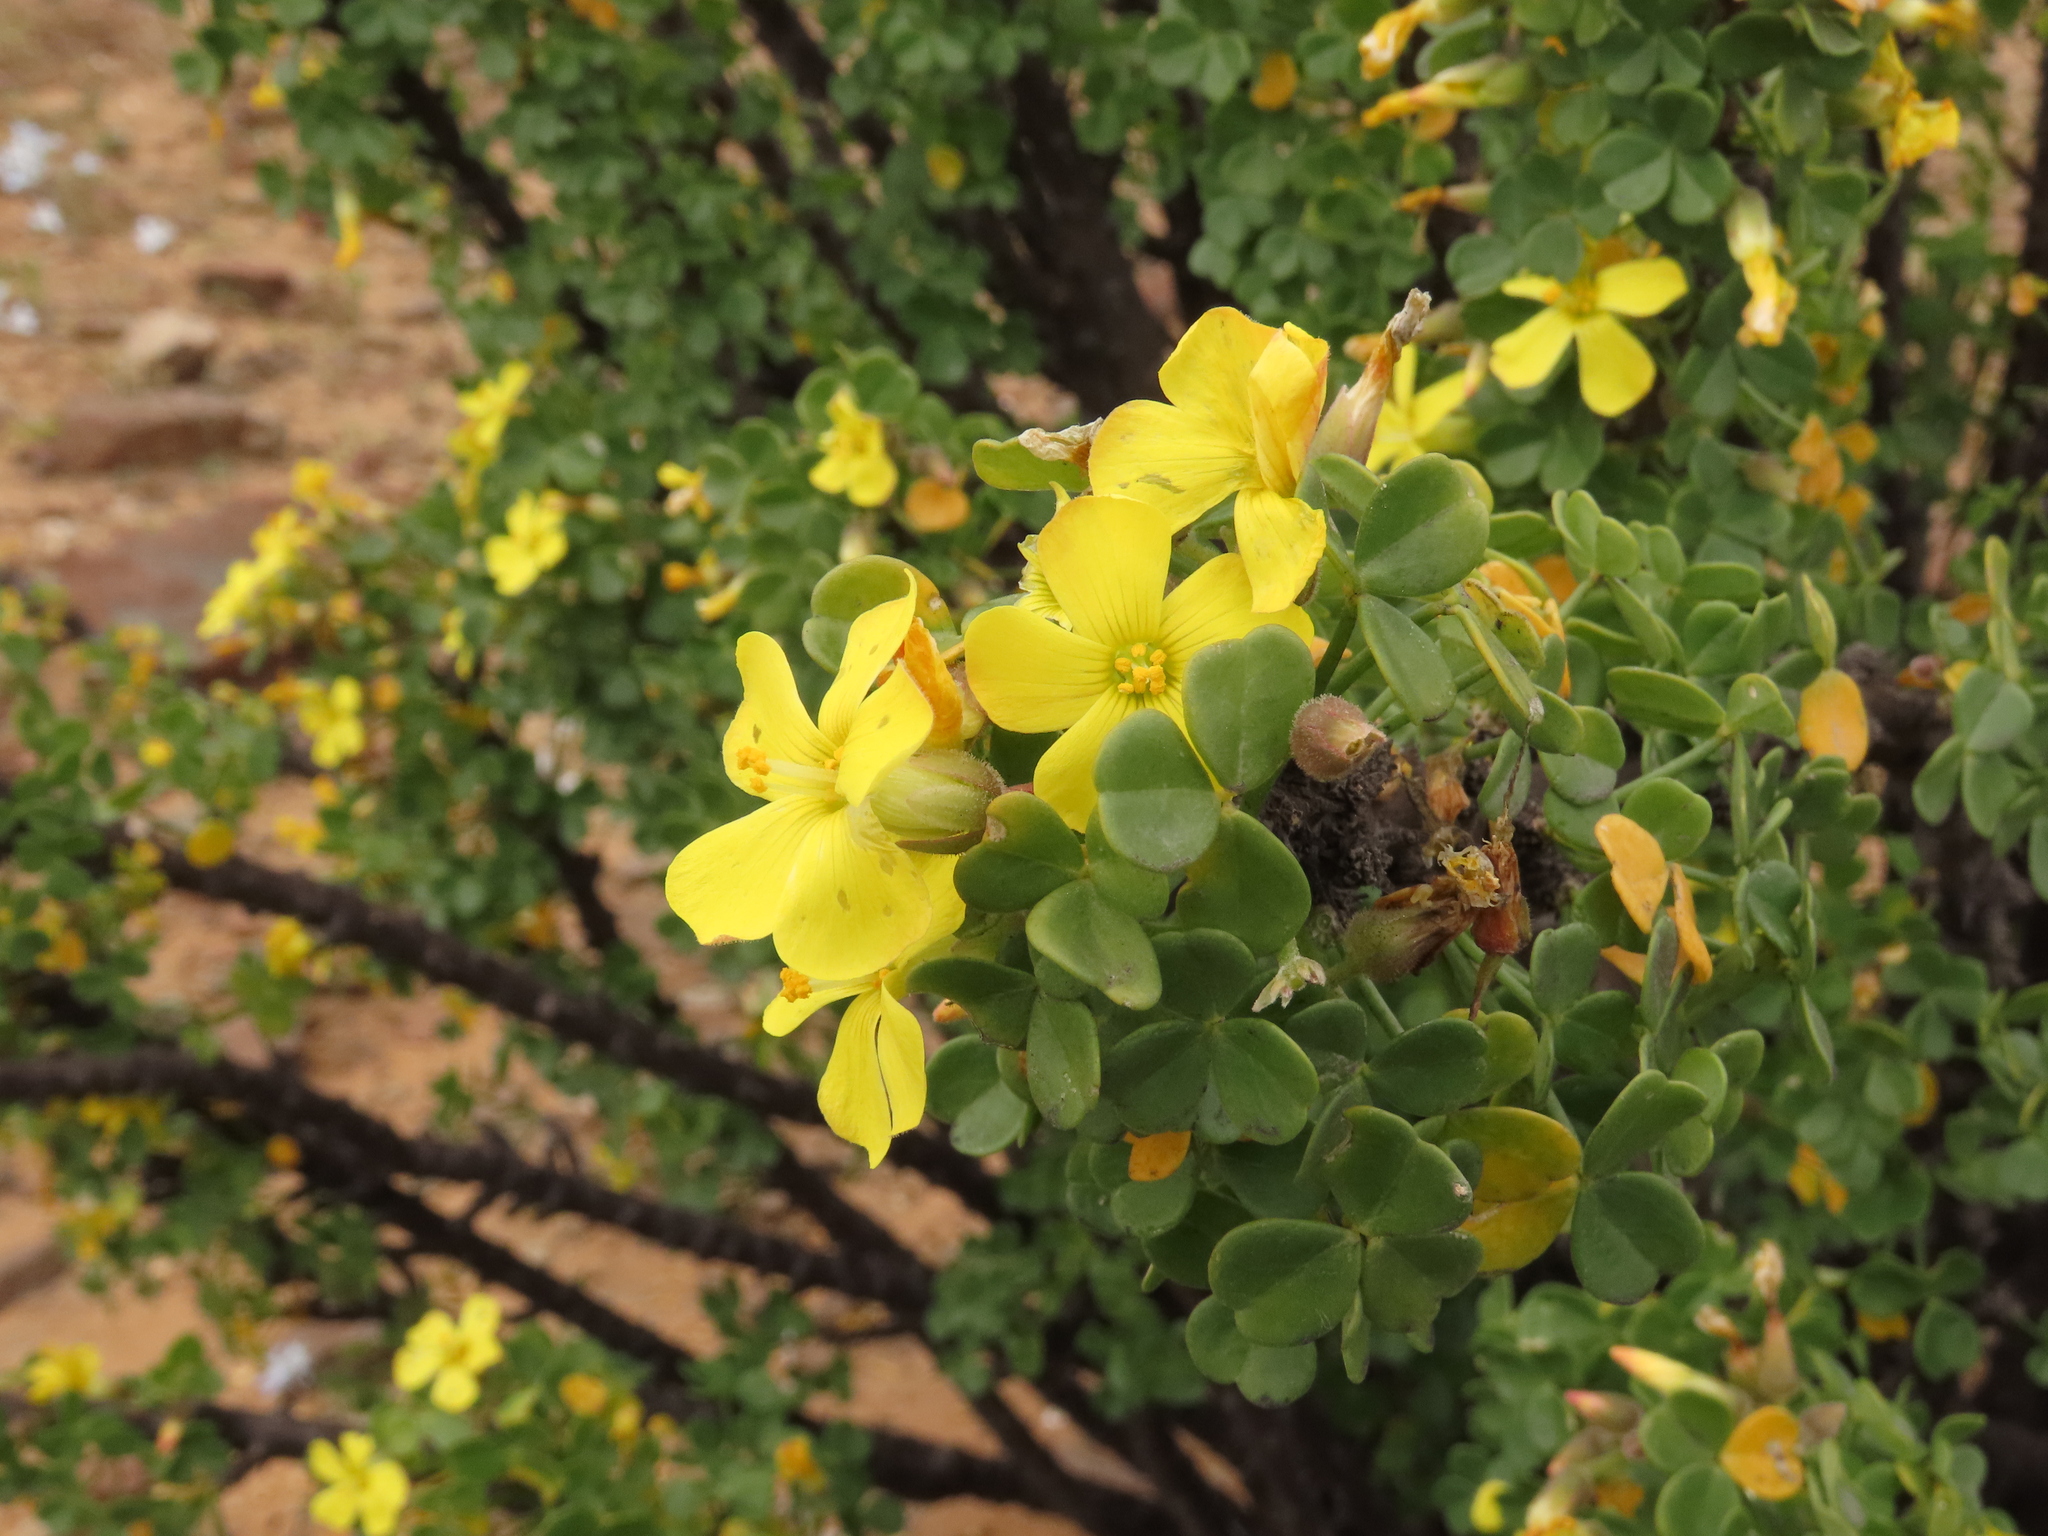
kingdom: Plantae
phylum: Tracheophyta
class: Magnoliopsida
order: Oxalidales
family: Oxalidaceae
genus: Oxalis
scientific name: Oxalis gigantea
